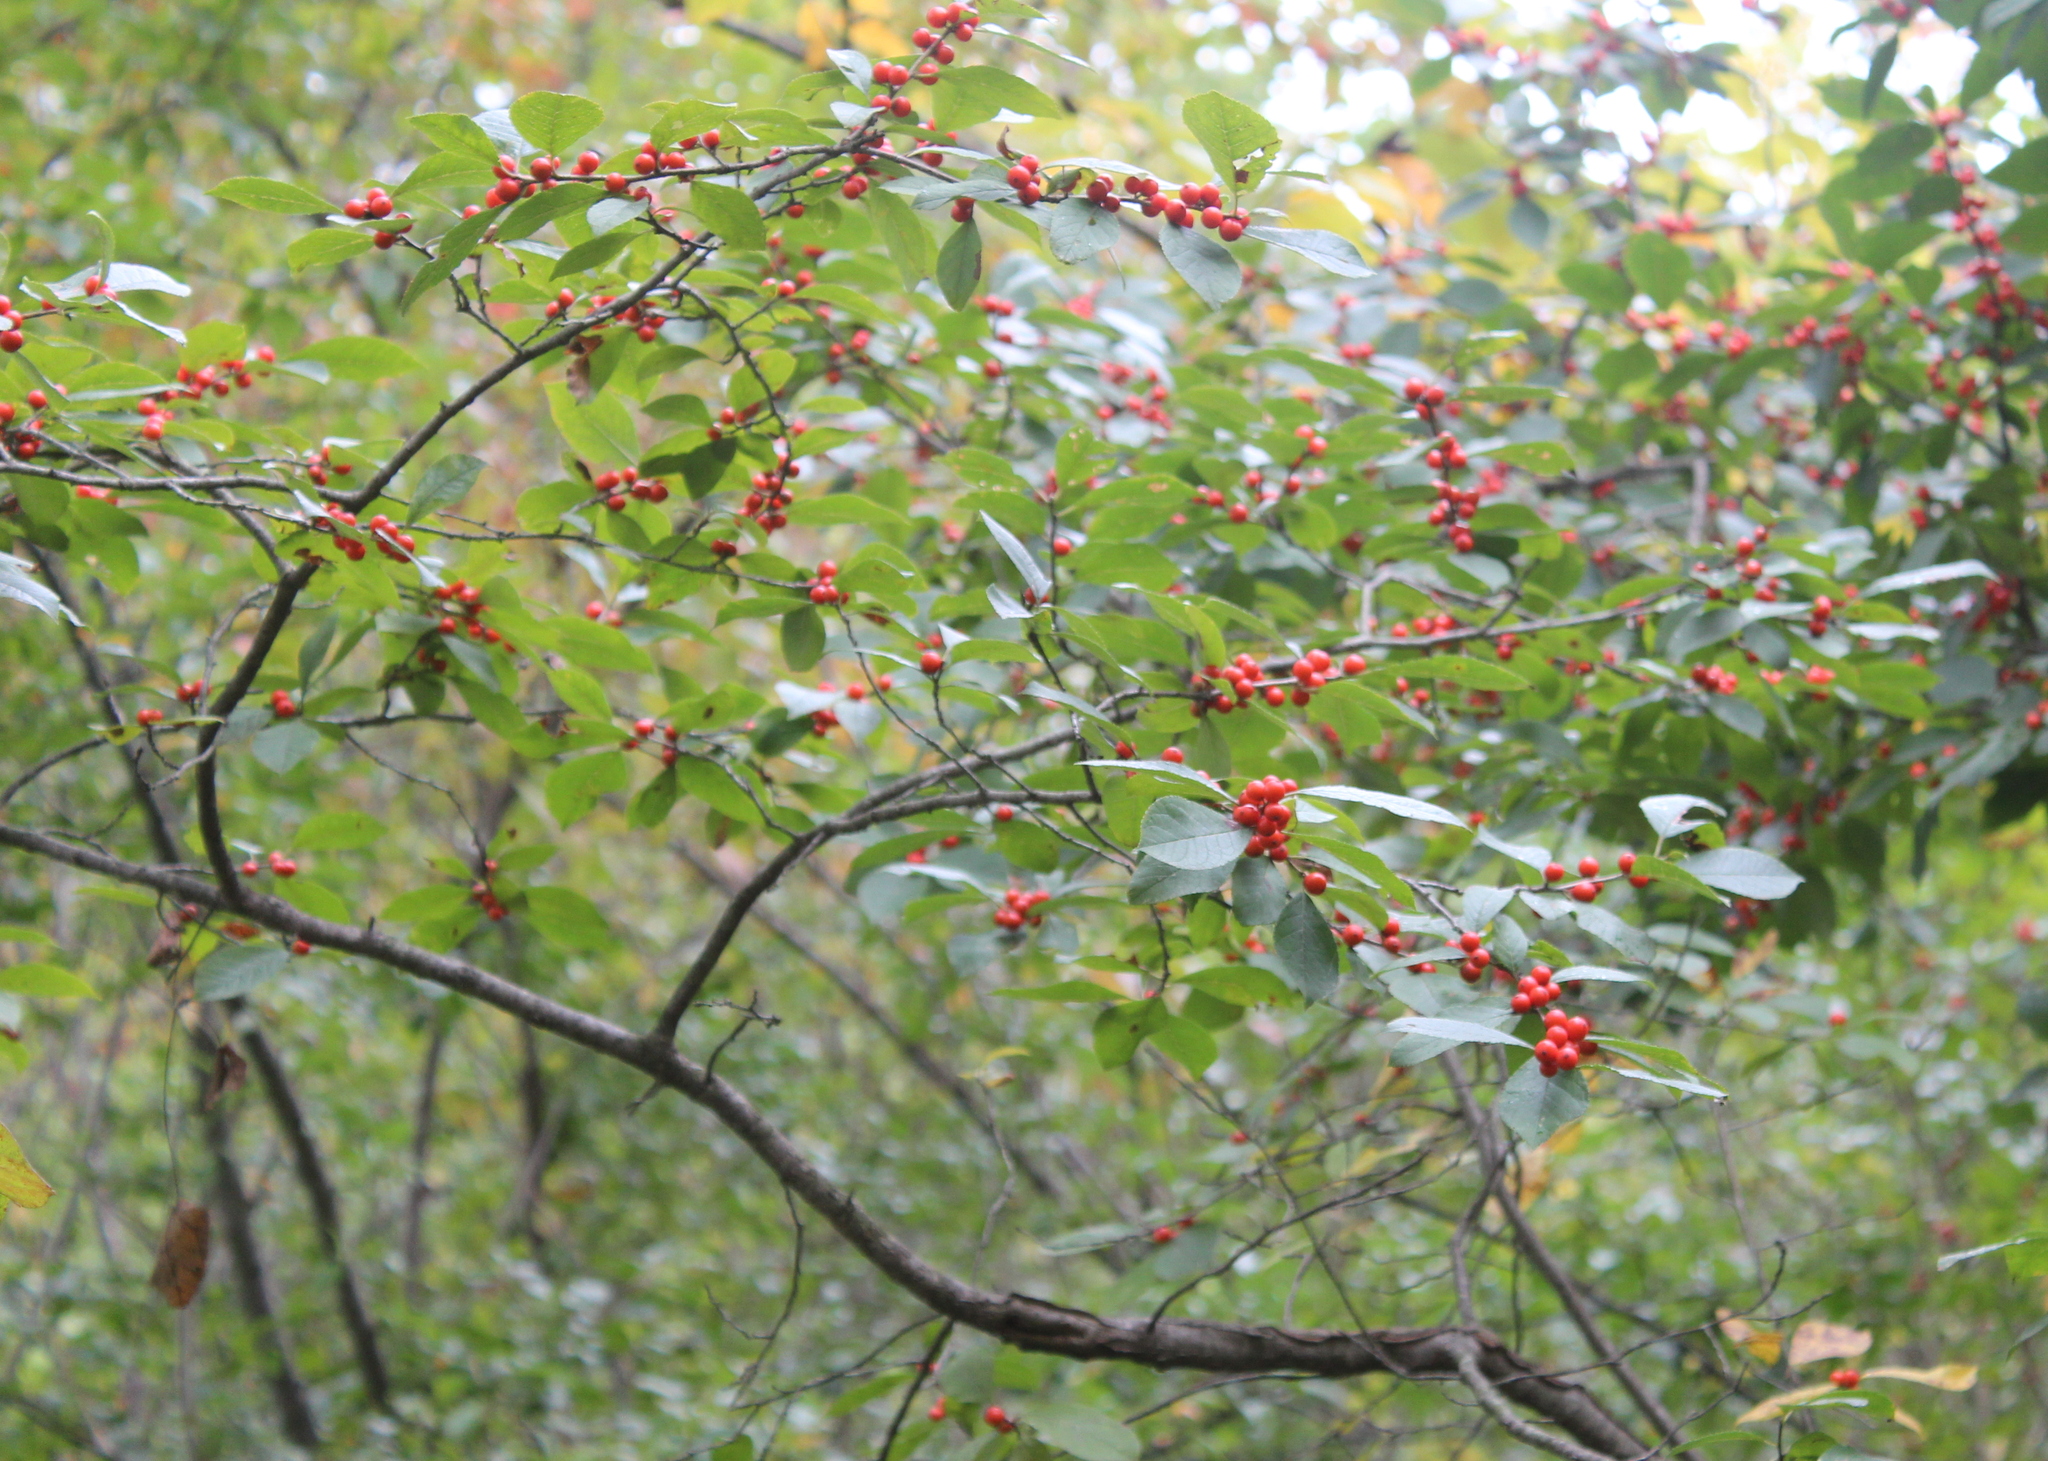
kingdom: Plantae
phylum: Tracheophyta
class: Magnoliopsida
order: Aquifoliales
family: Aquifoliaceae
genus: Ilex
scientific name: Ilex verticillata
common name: Virginia winterberry
